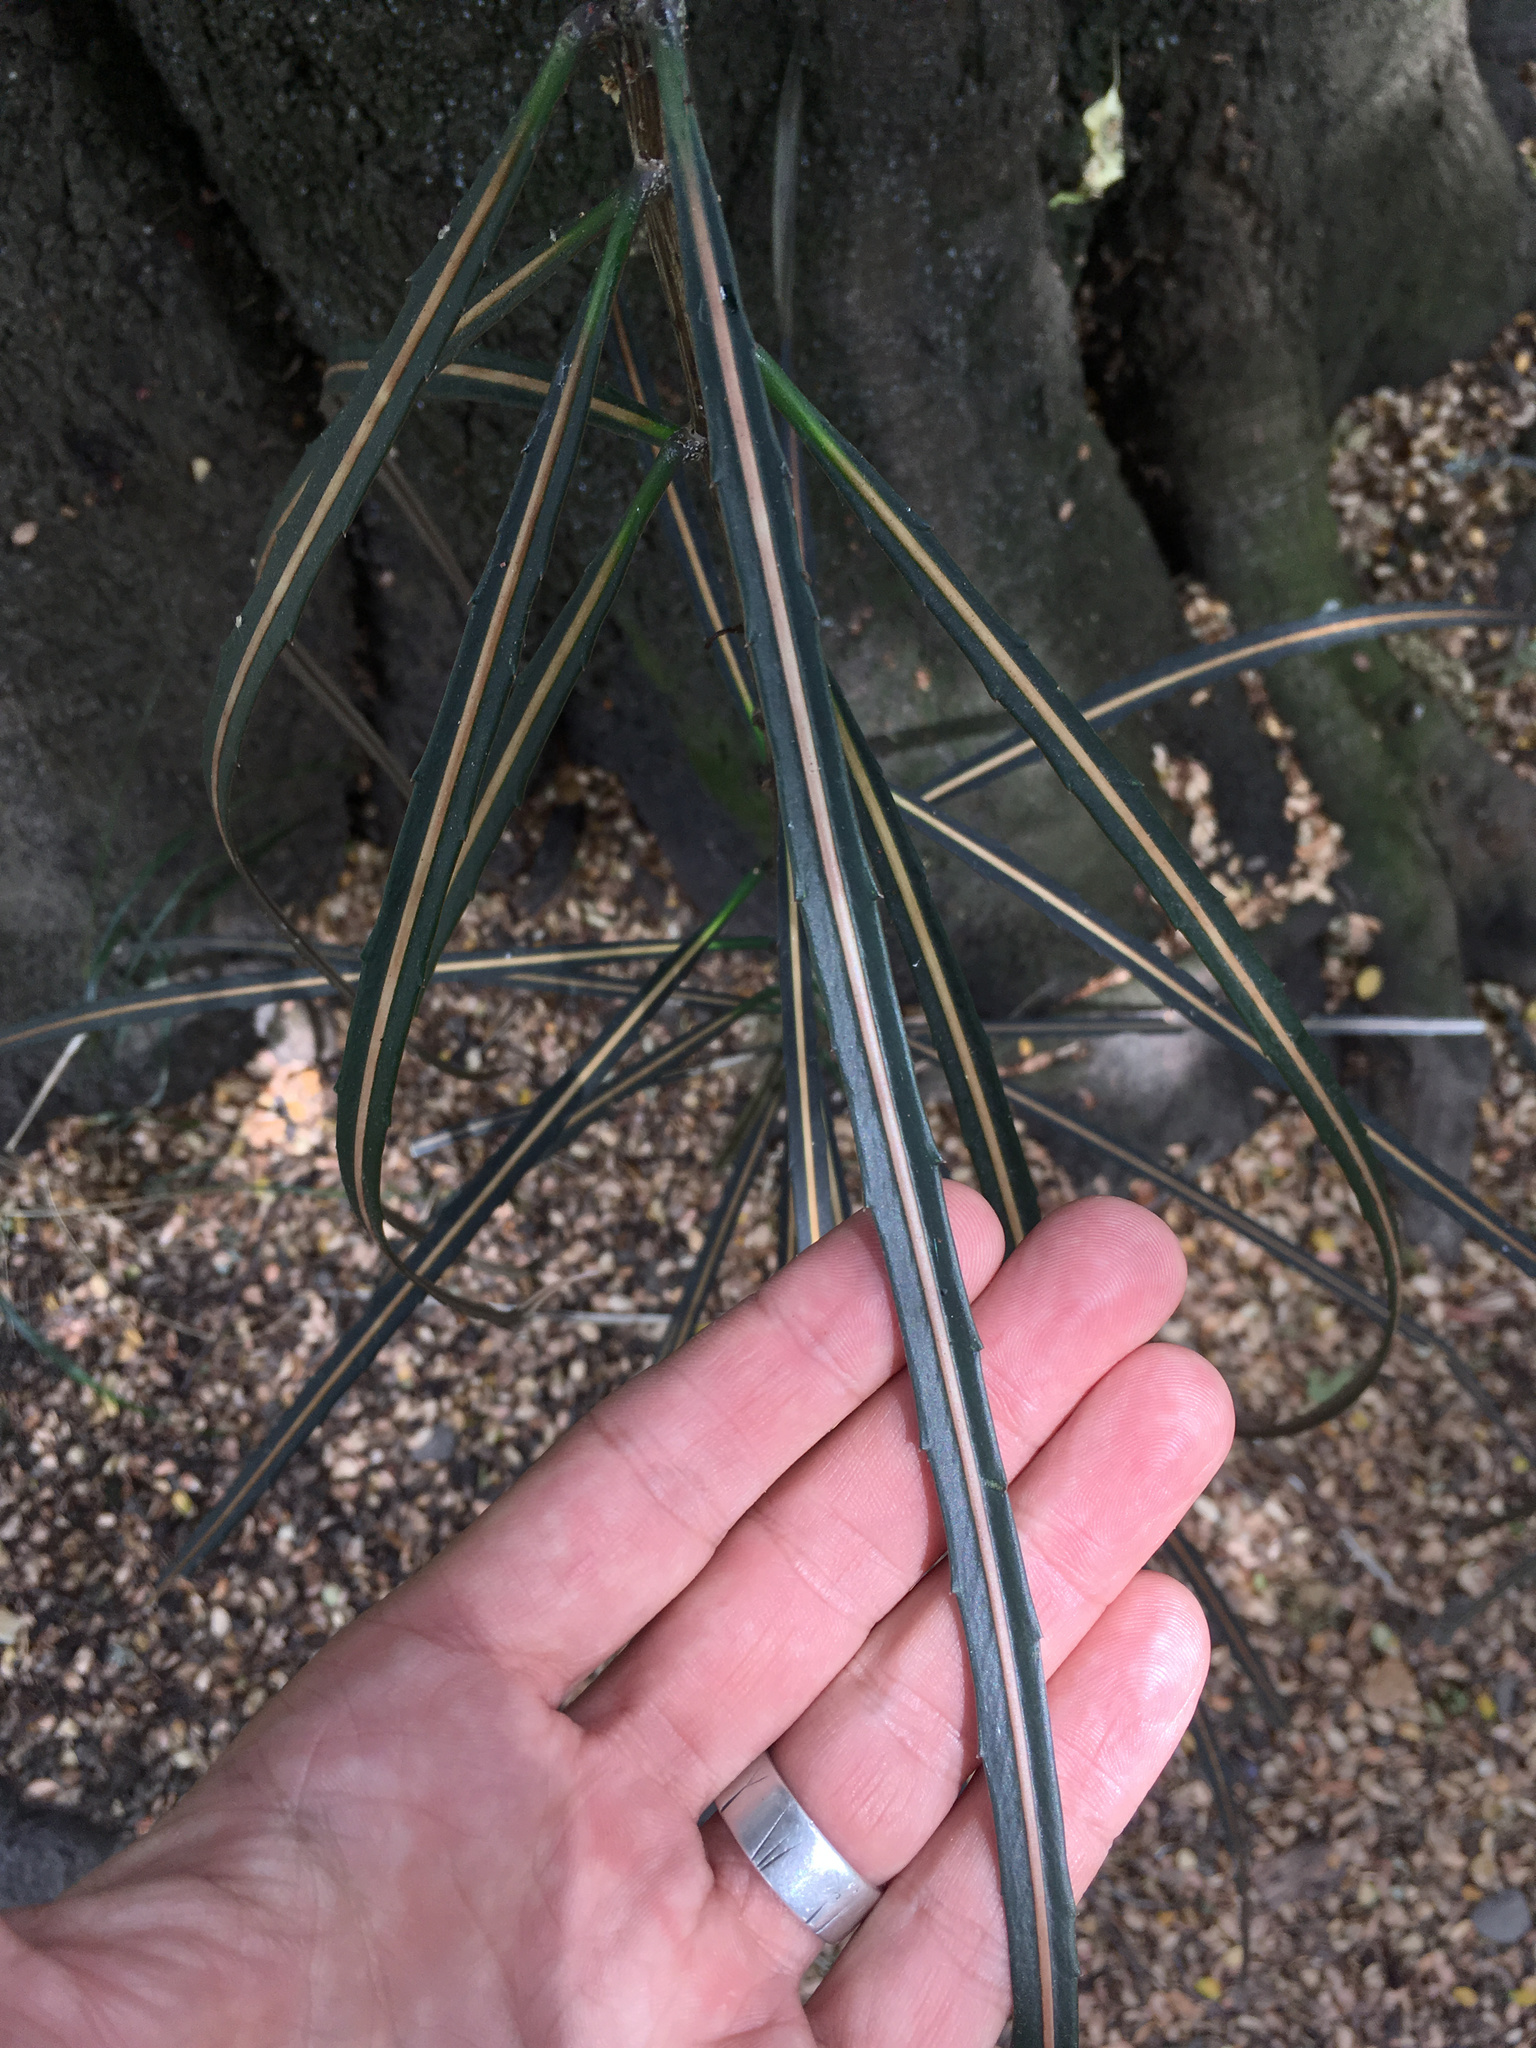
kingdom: Plantae
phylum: Tracheophyta
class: Magnoliopsida
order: Apiales
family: Araliaceae
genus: Pseudopanax
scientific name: Pseudopanax crassifolius
